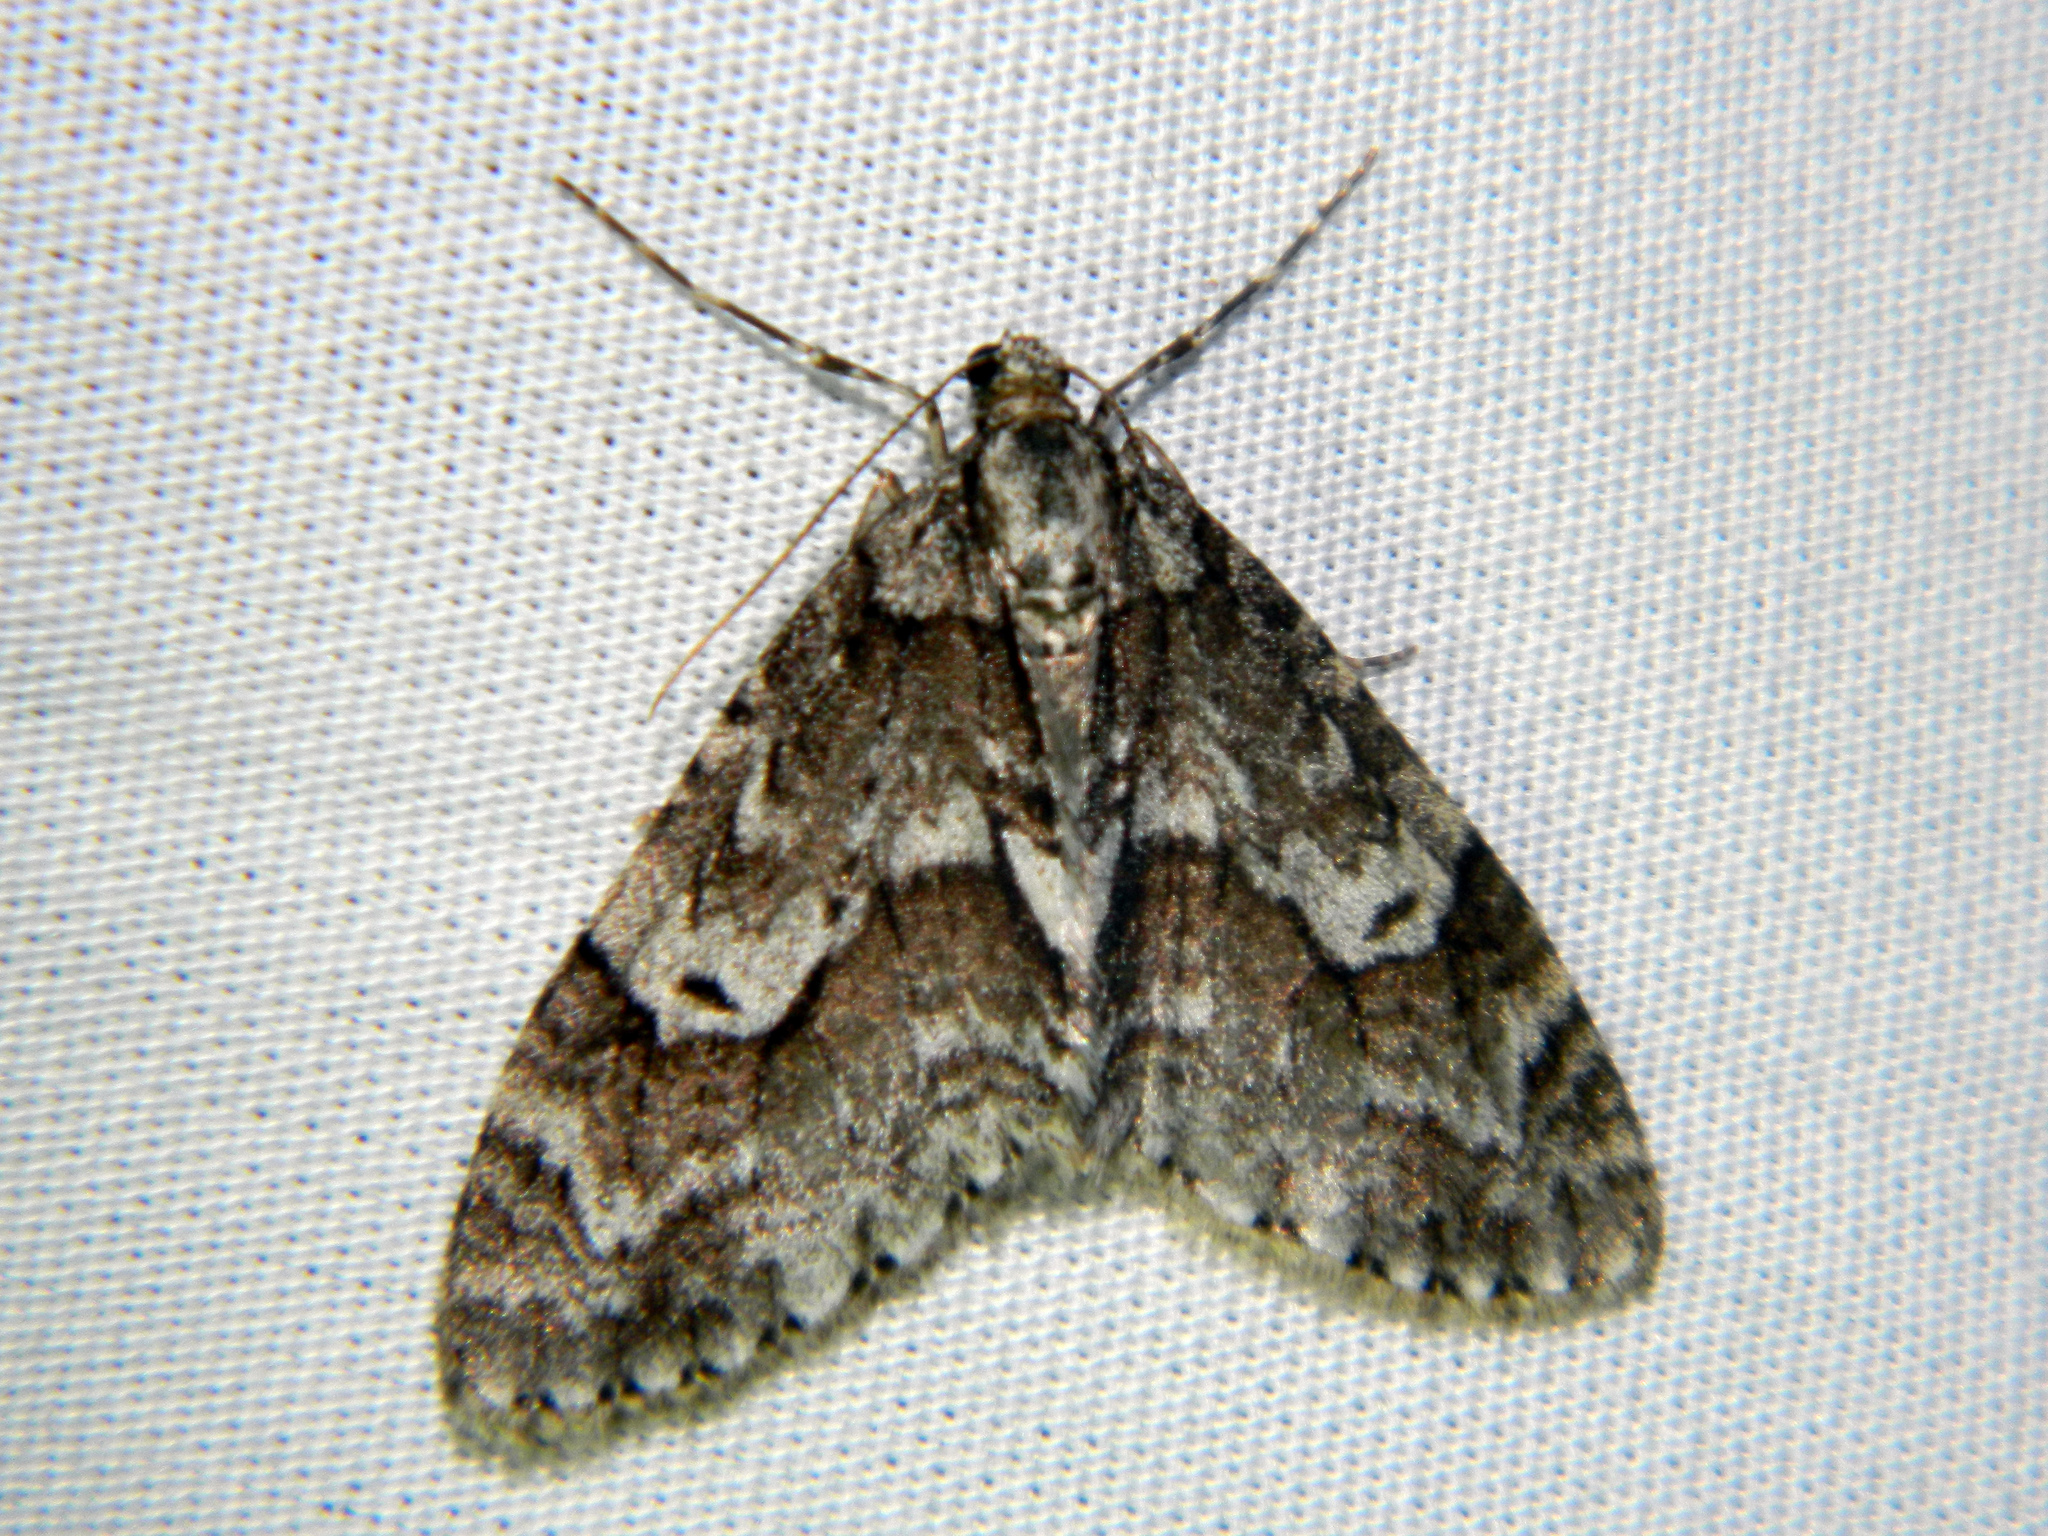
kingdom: Animalia
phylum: Arthropoda
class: Insecta
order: Lepidoptera
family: Geometridae
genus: Cladara
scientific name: Cladara limitaria
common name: Mottled gray carpet
